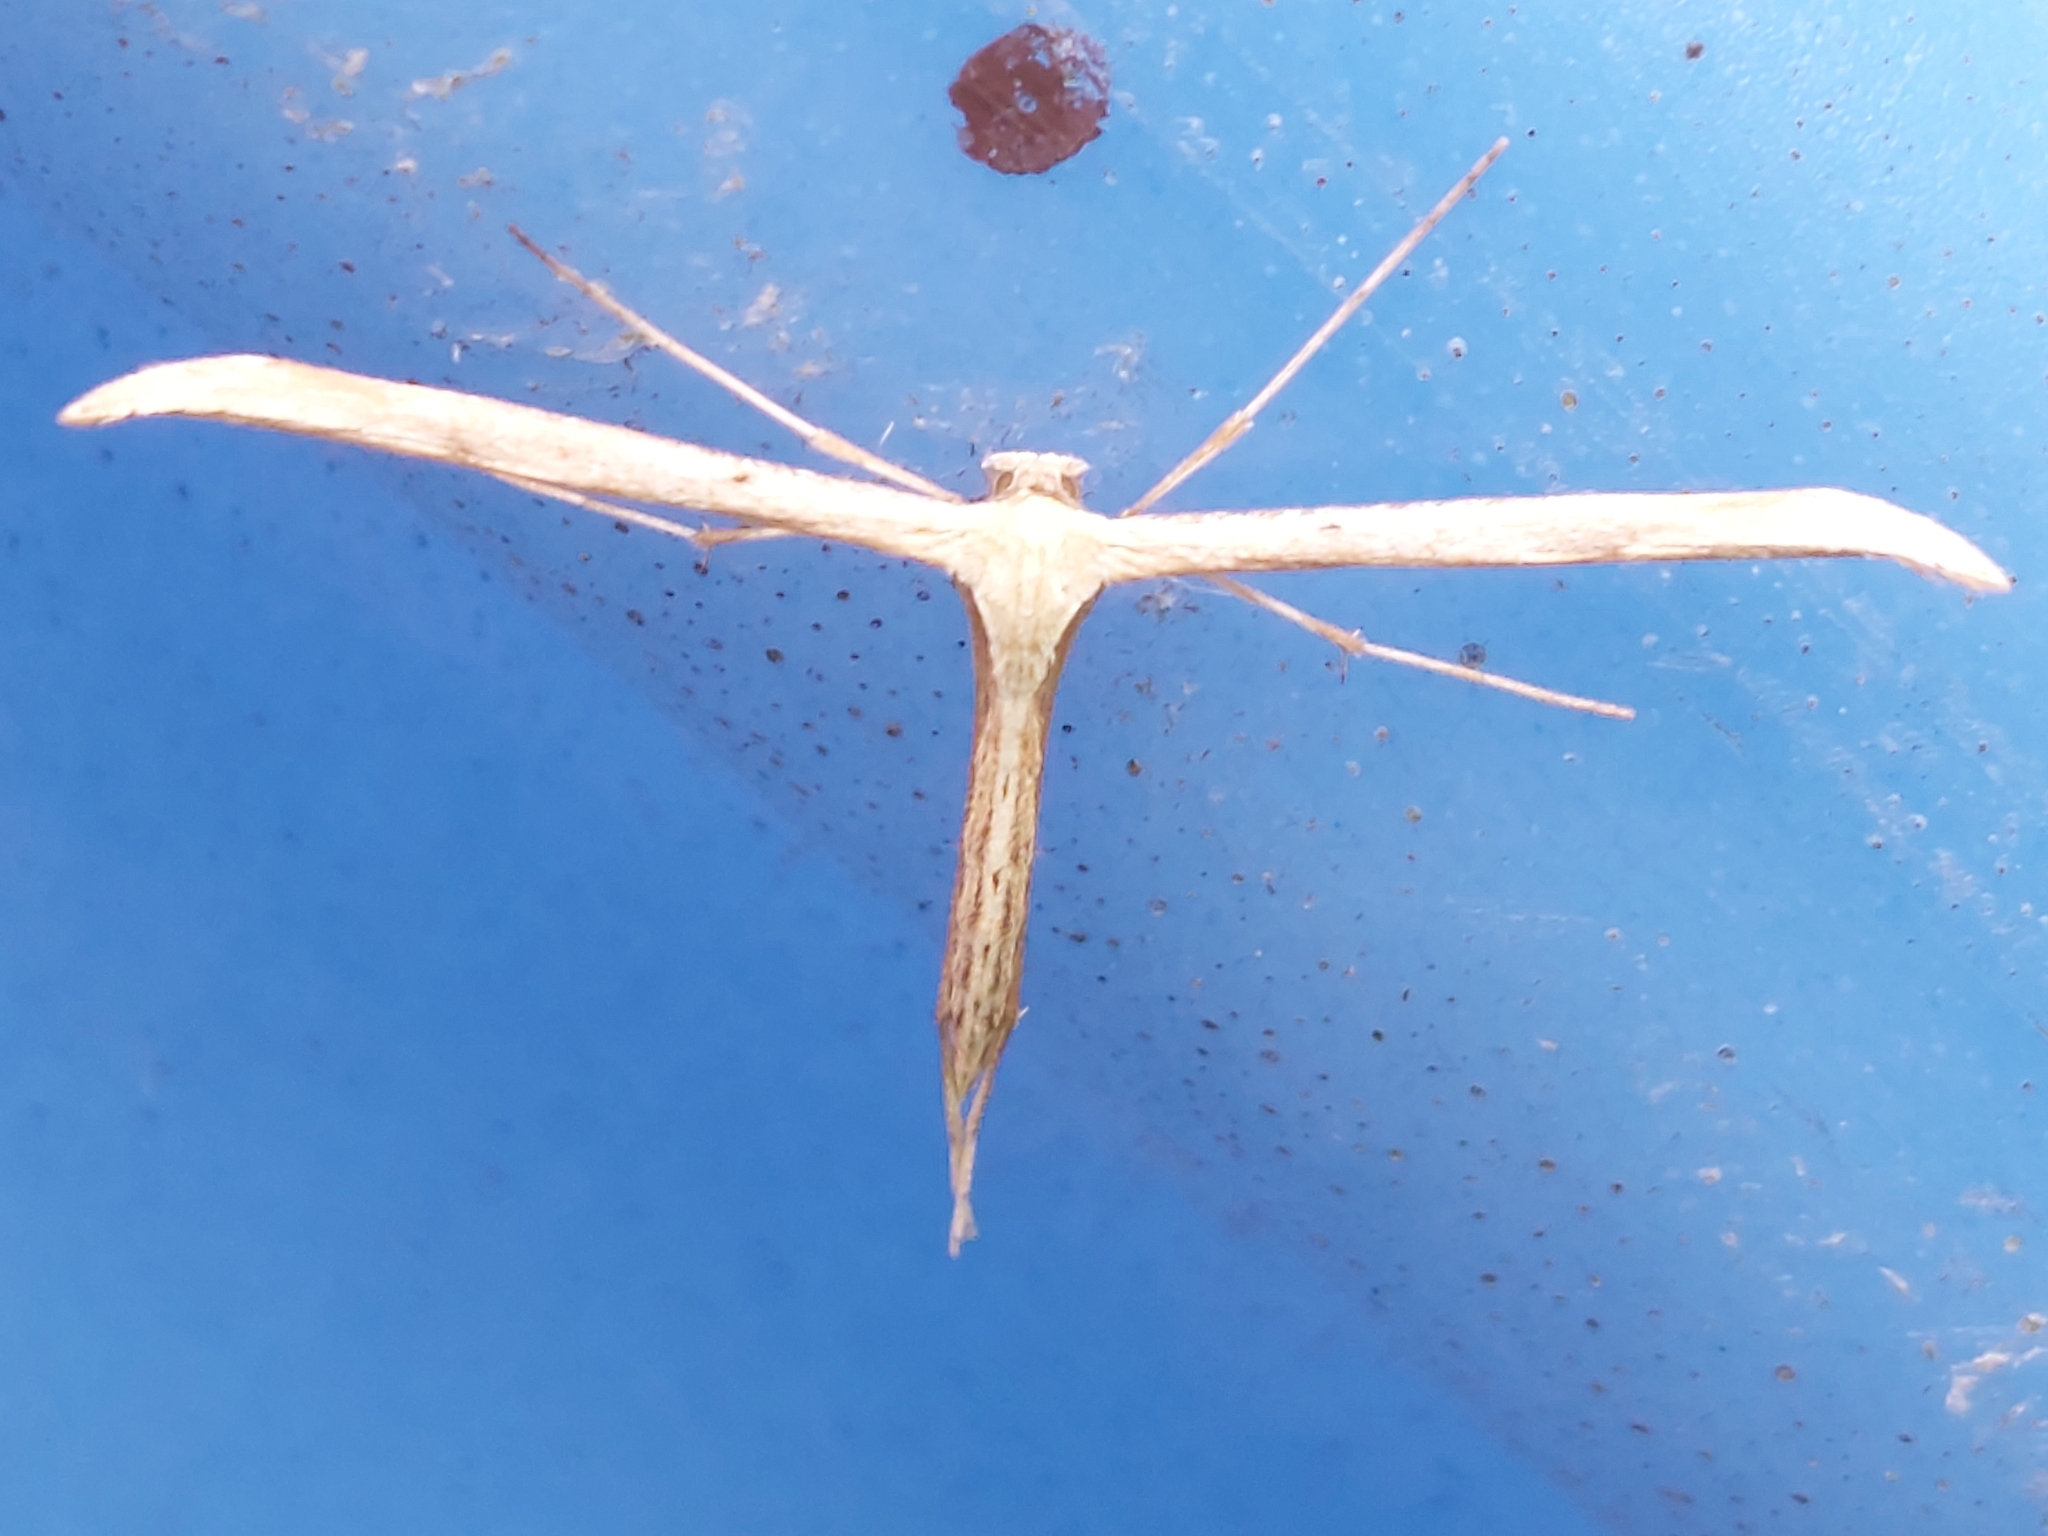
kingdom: Animalia
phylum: Arthropoda
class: Insecta
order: Lepidoptera
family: Pterophoridae
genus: Emmelina
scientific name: Emmelina monodactyla
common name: Common plume
